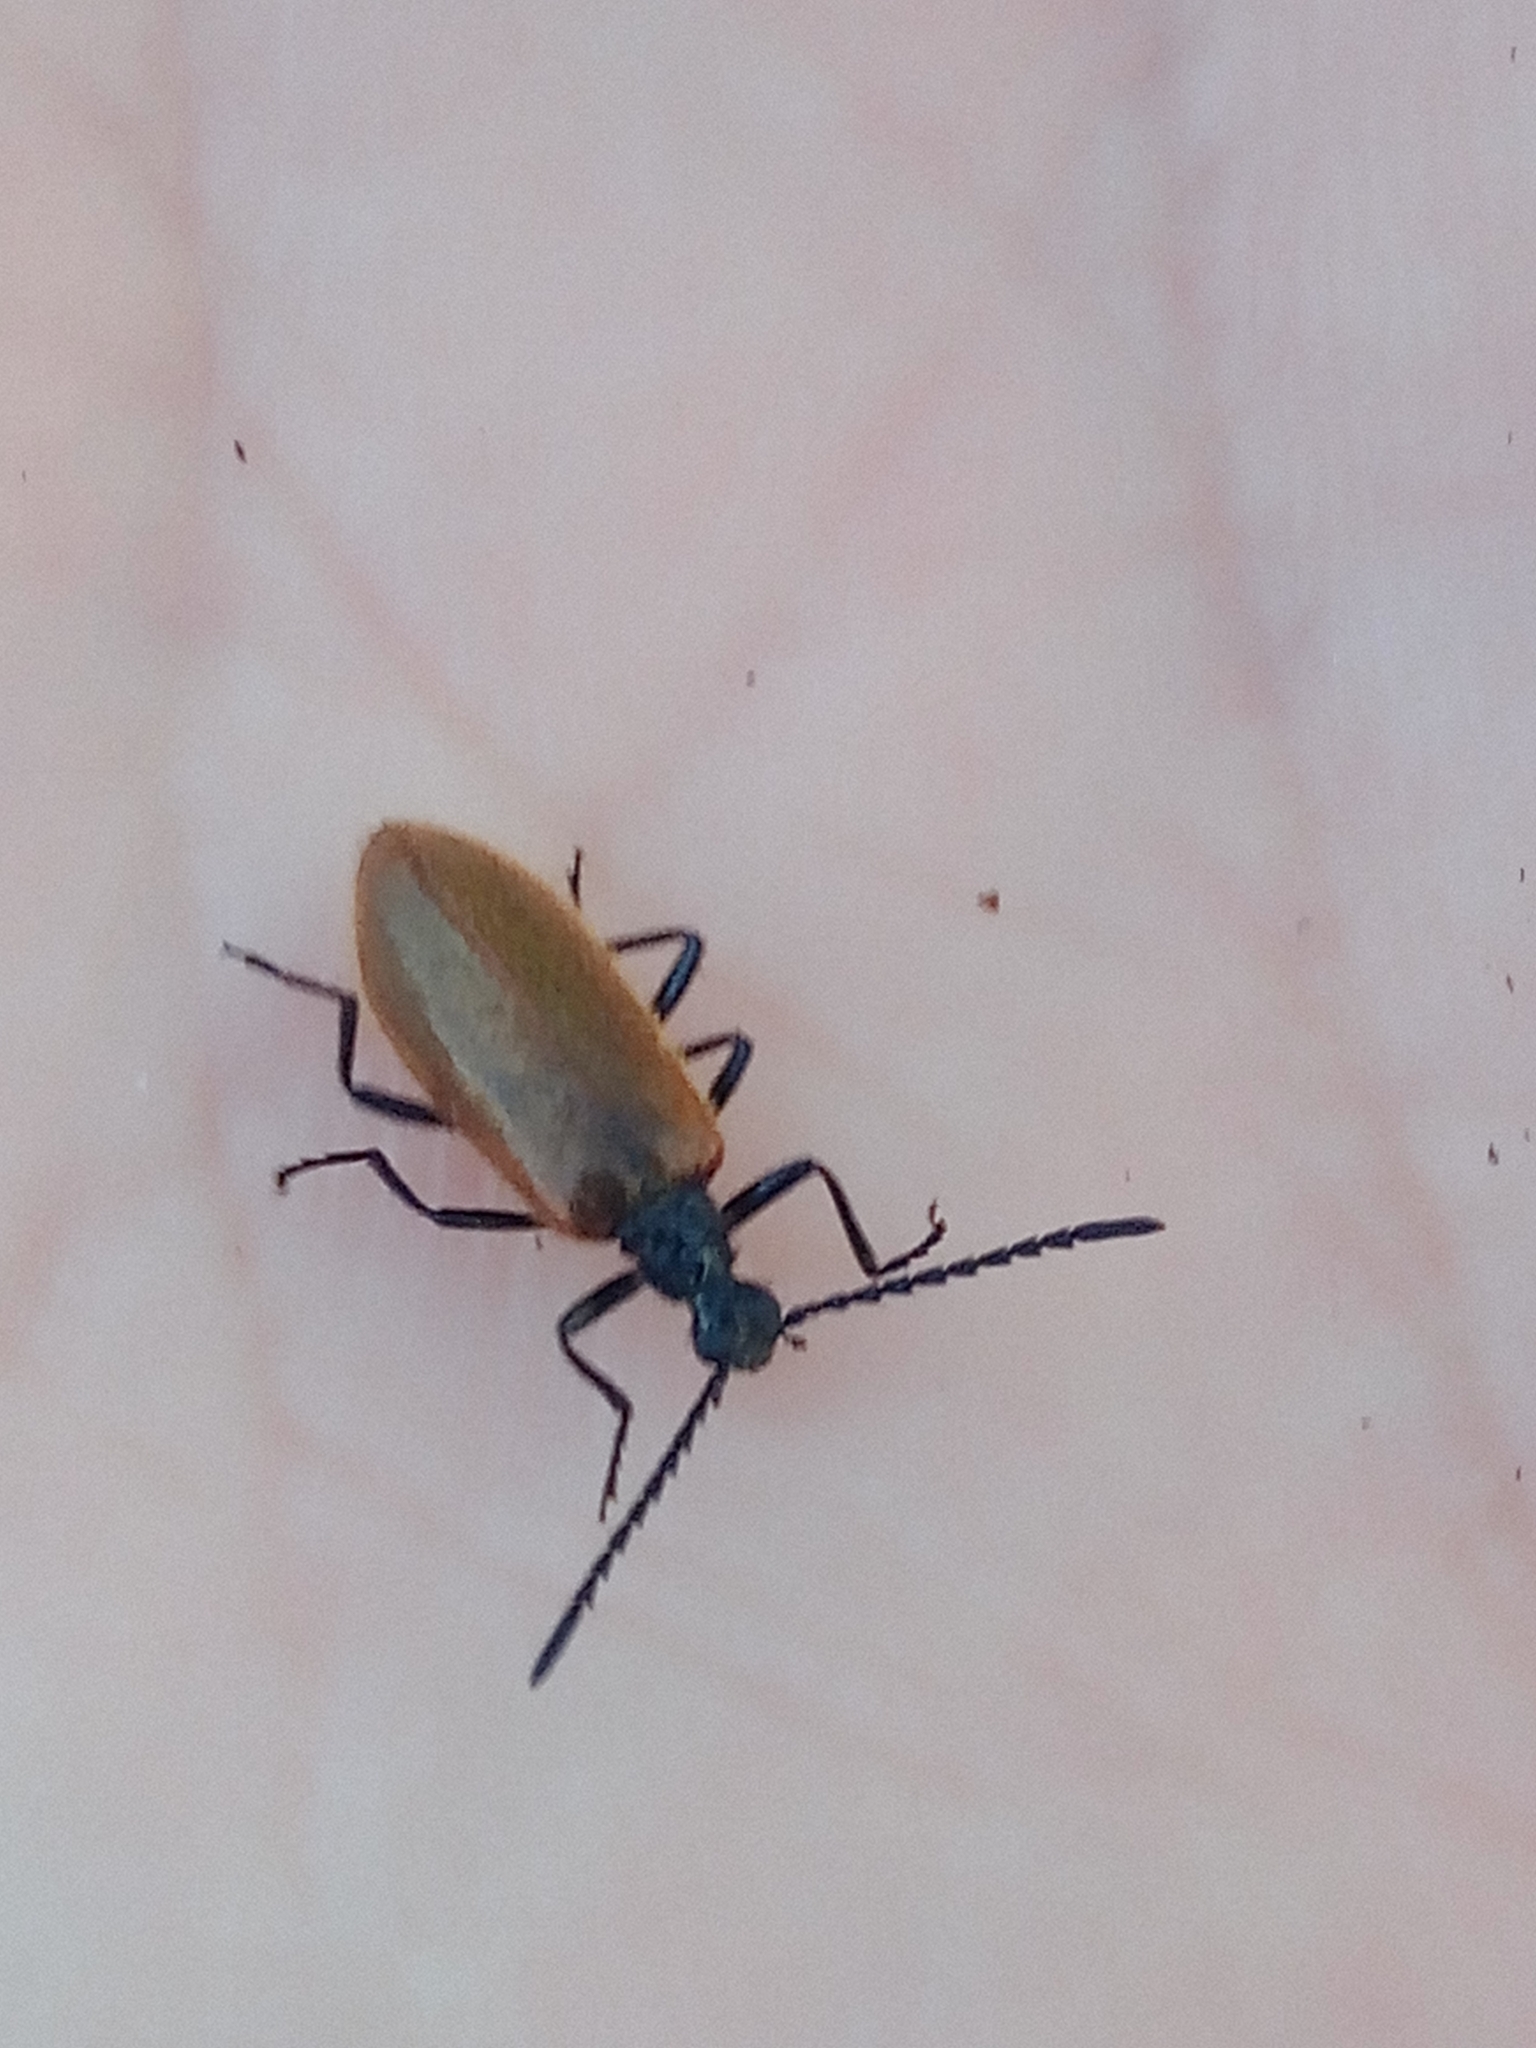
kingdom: Animalia
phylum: Arthropoda
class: Insecta
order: Coleoptera
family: Tenebrionidae
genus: Lagria
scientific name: Lagria hirta
